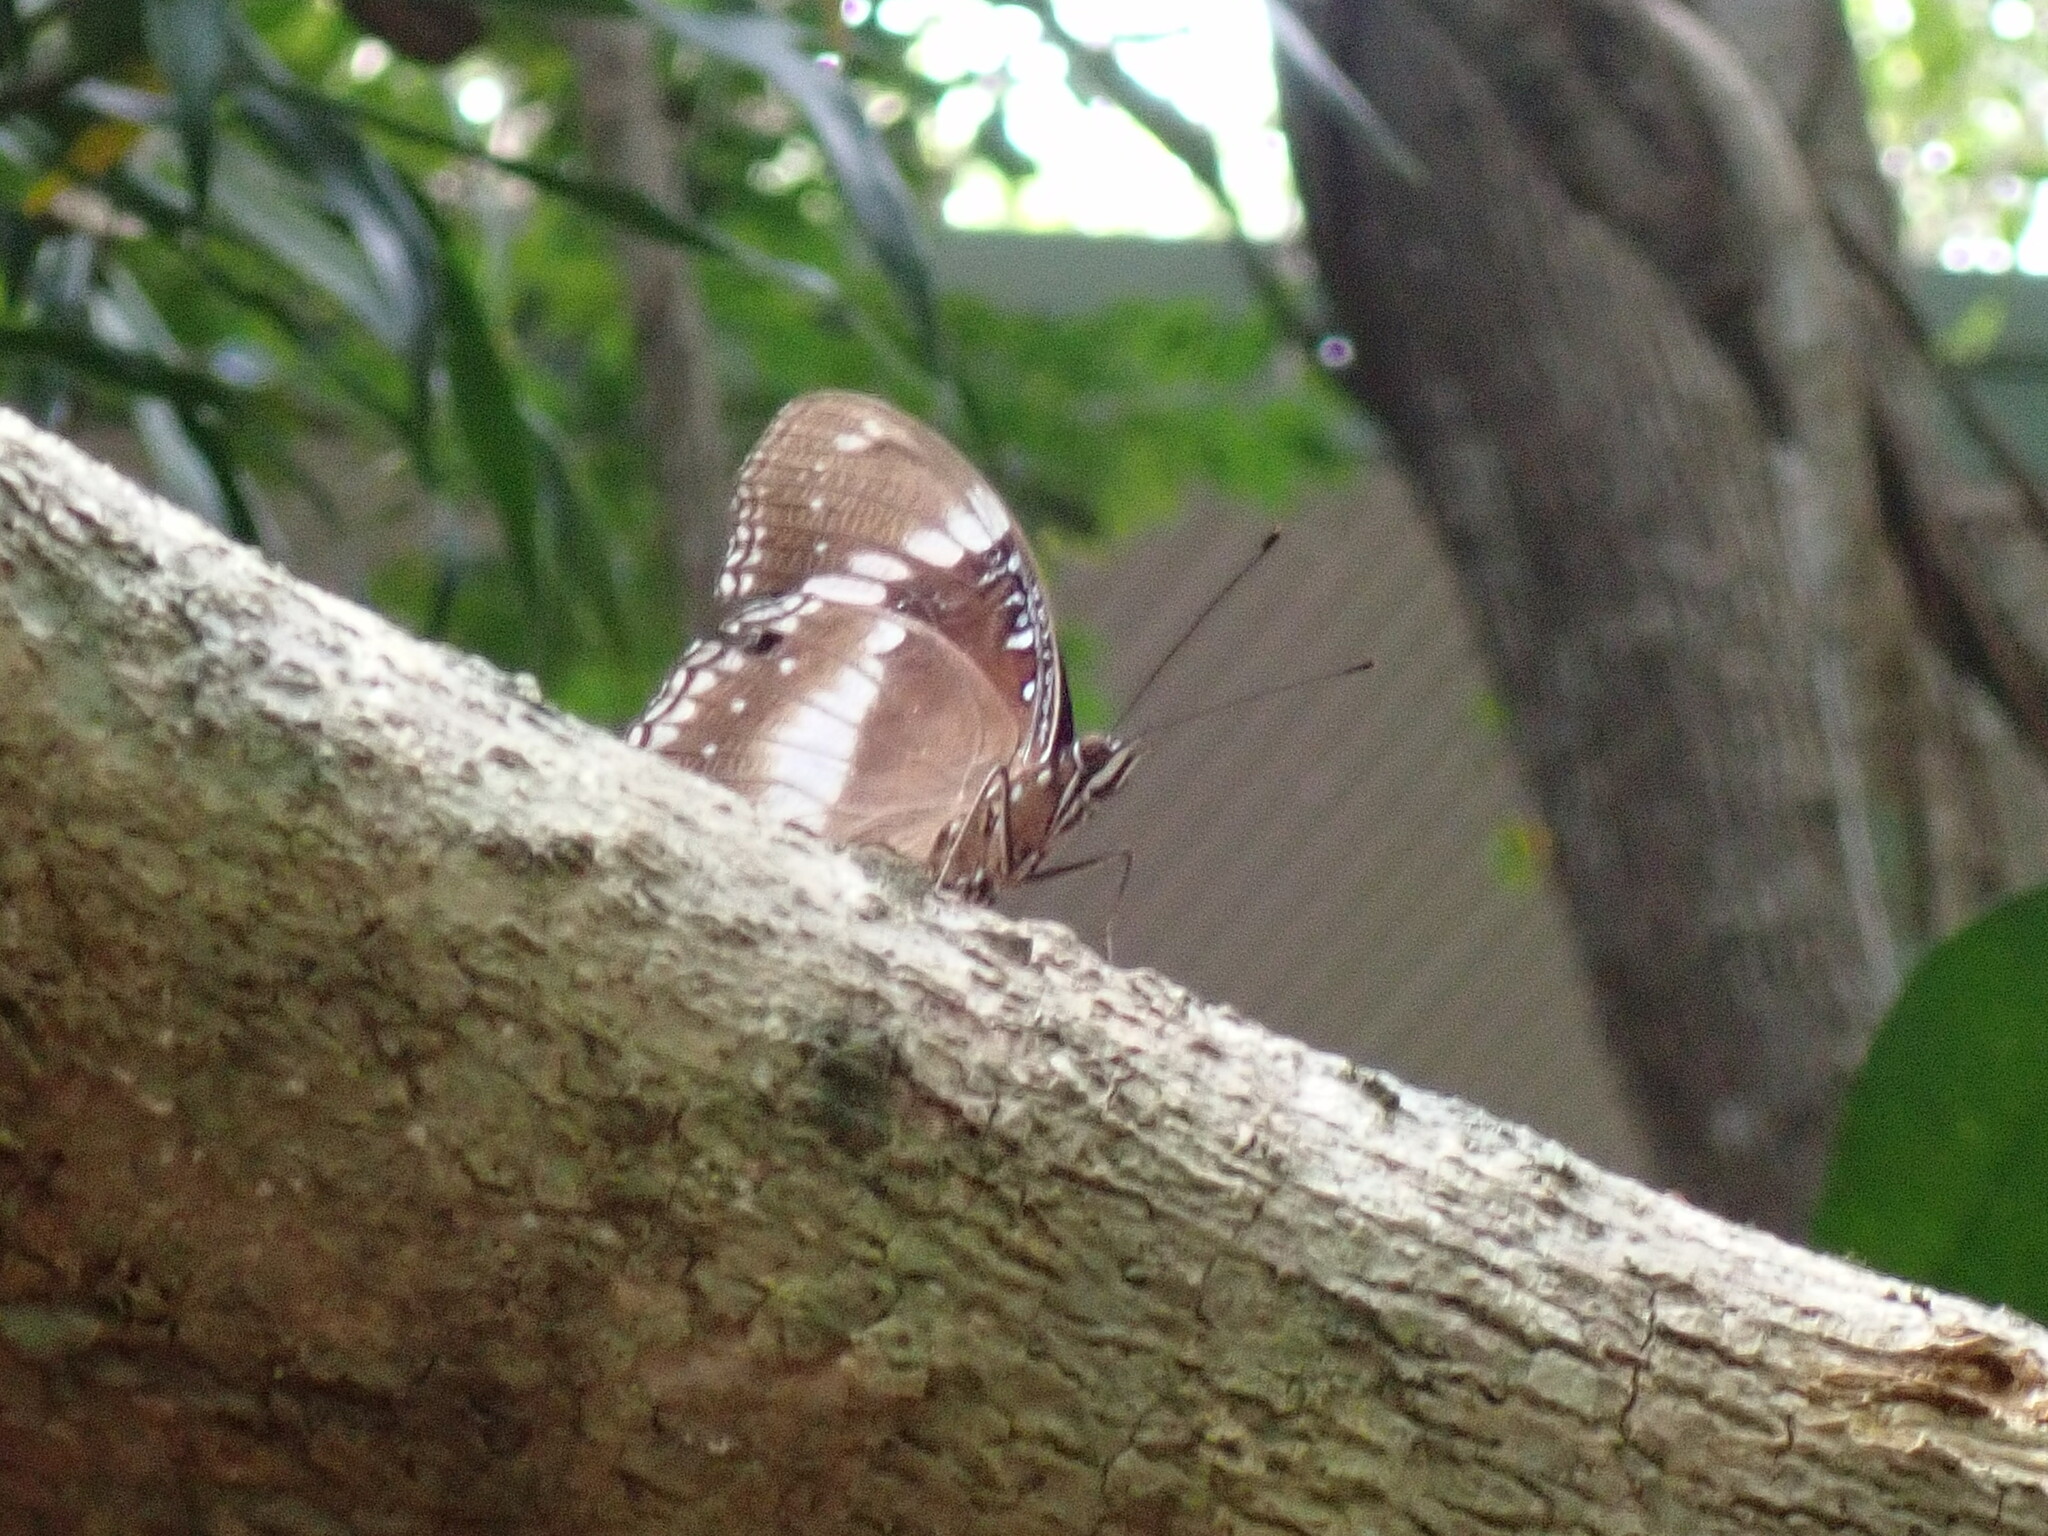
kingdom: Animalia
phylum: Arthropoda
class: Insecta
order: Lepidoptera
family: Nymphalidae
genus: Hypolimnas
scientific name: Hypolimnas bolina
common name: Great eggfly
